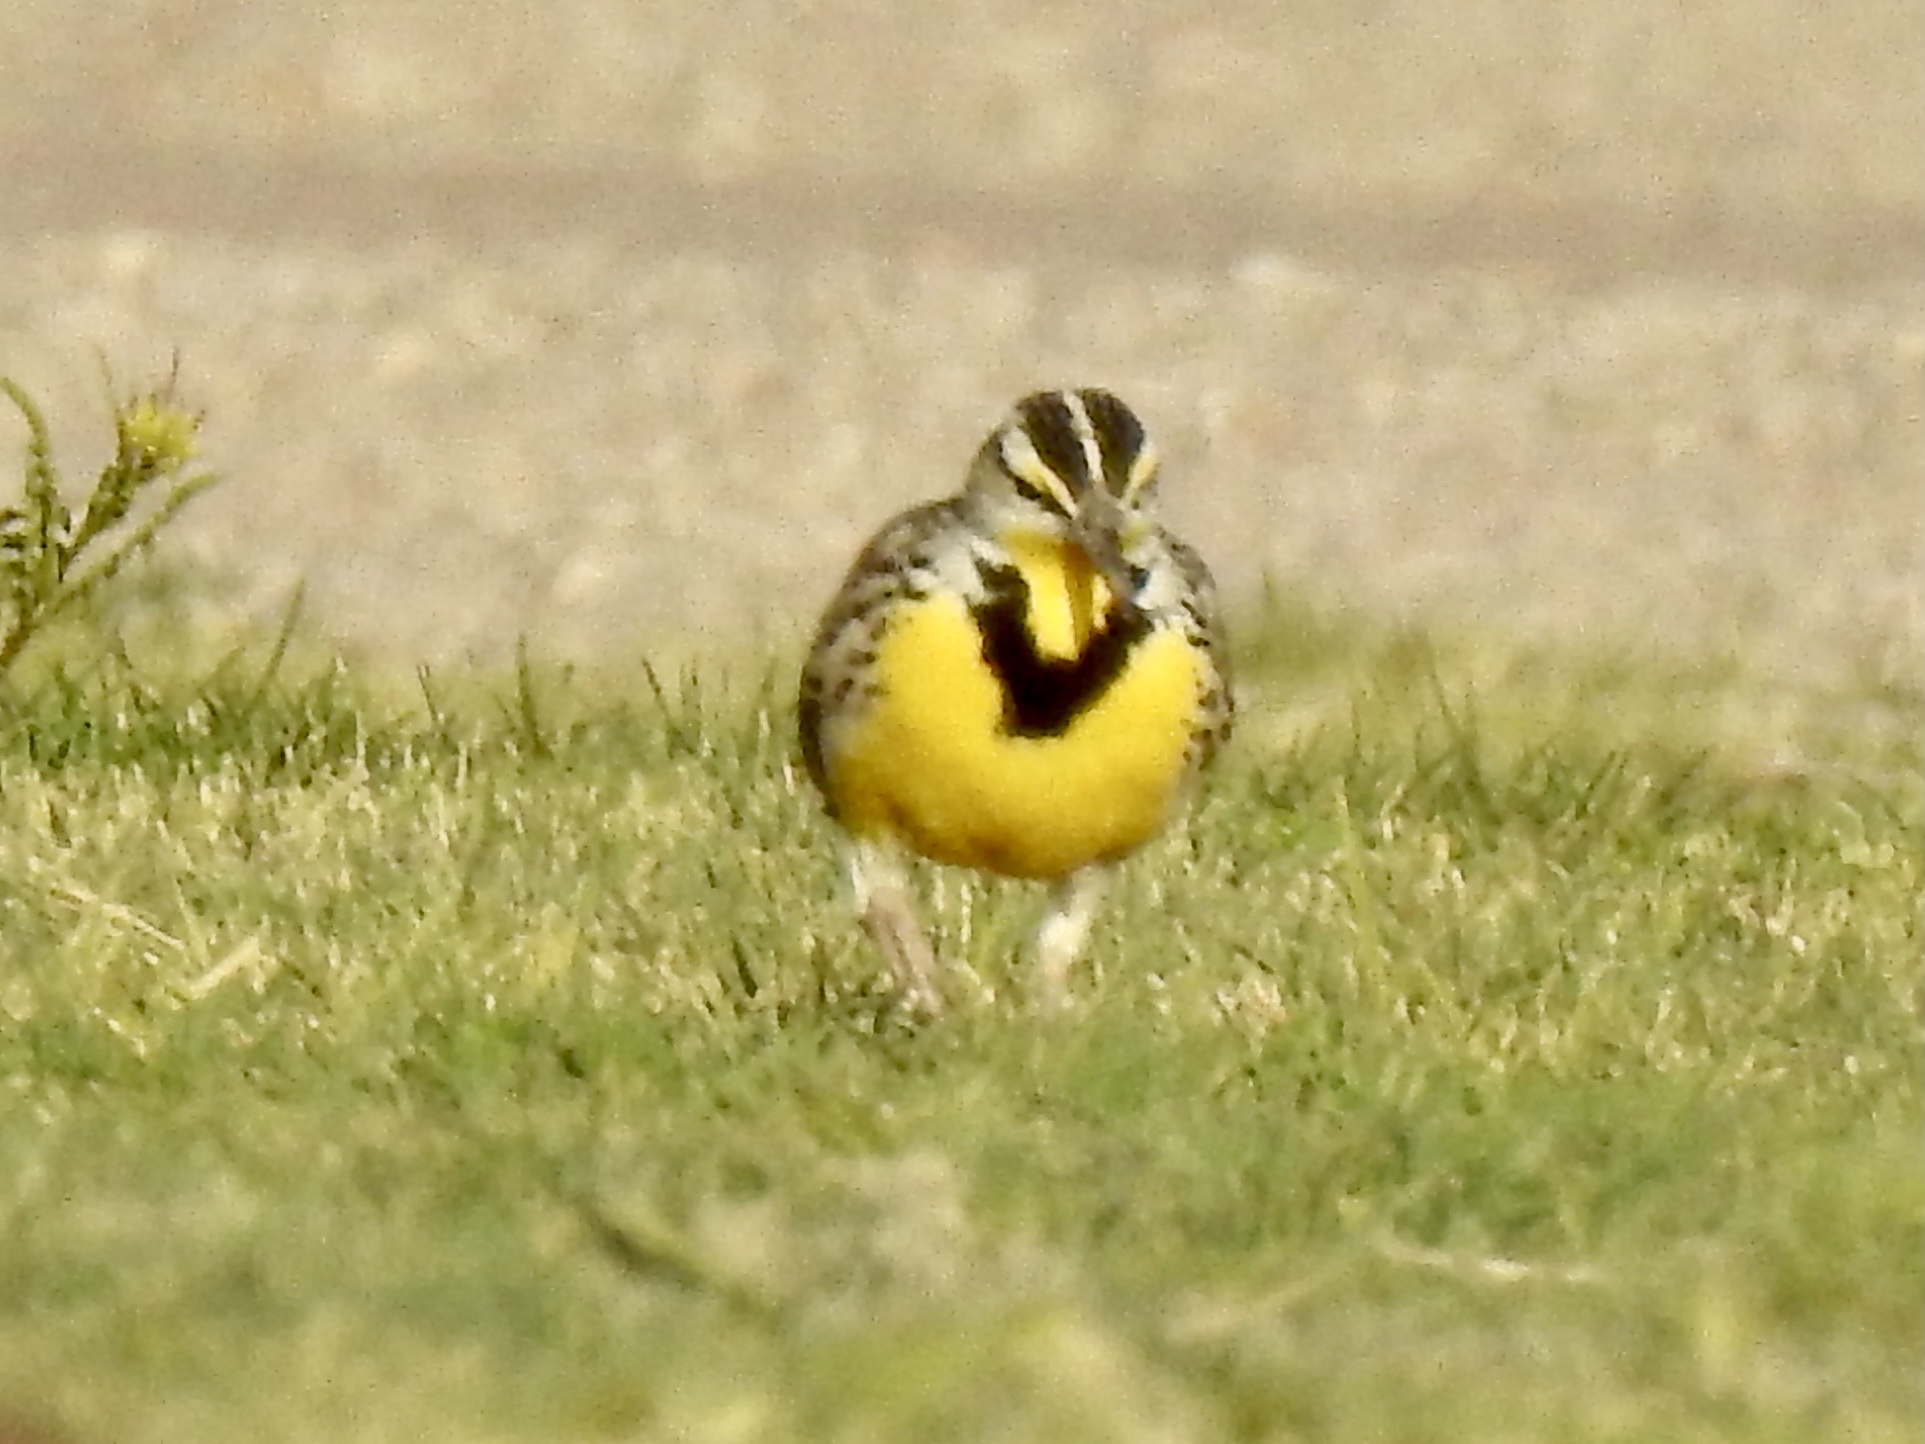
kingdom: Animalia
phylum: Chordata
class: Aves
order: Passeriformes
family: Icteridae
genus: Sturnella
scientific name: Sturnella neglecta
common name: Western meadowlark
